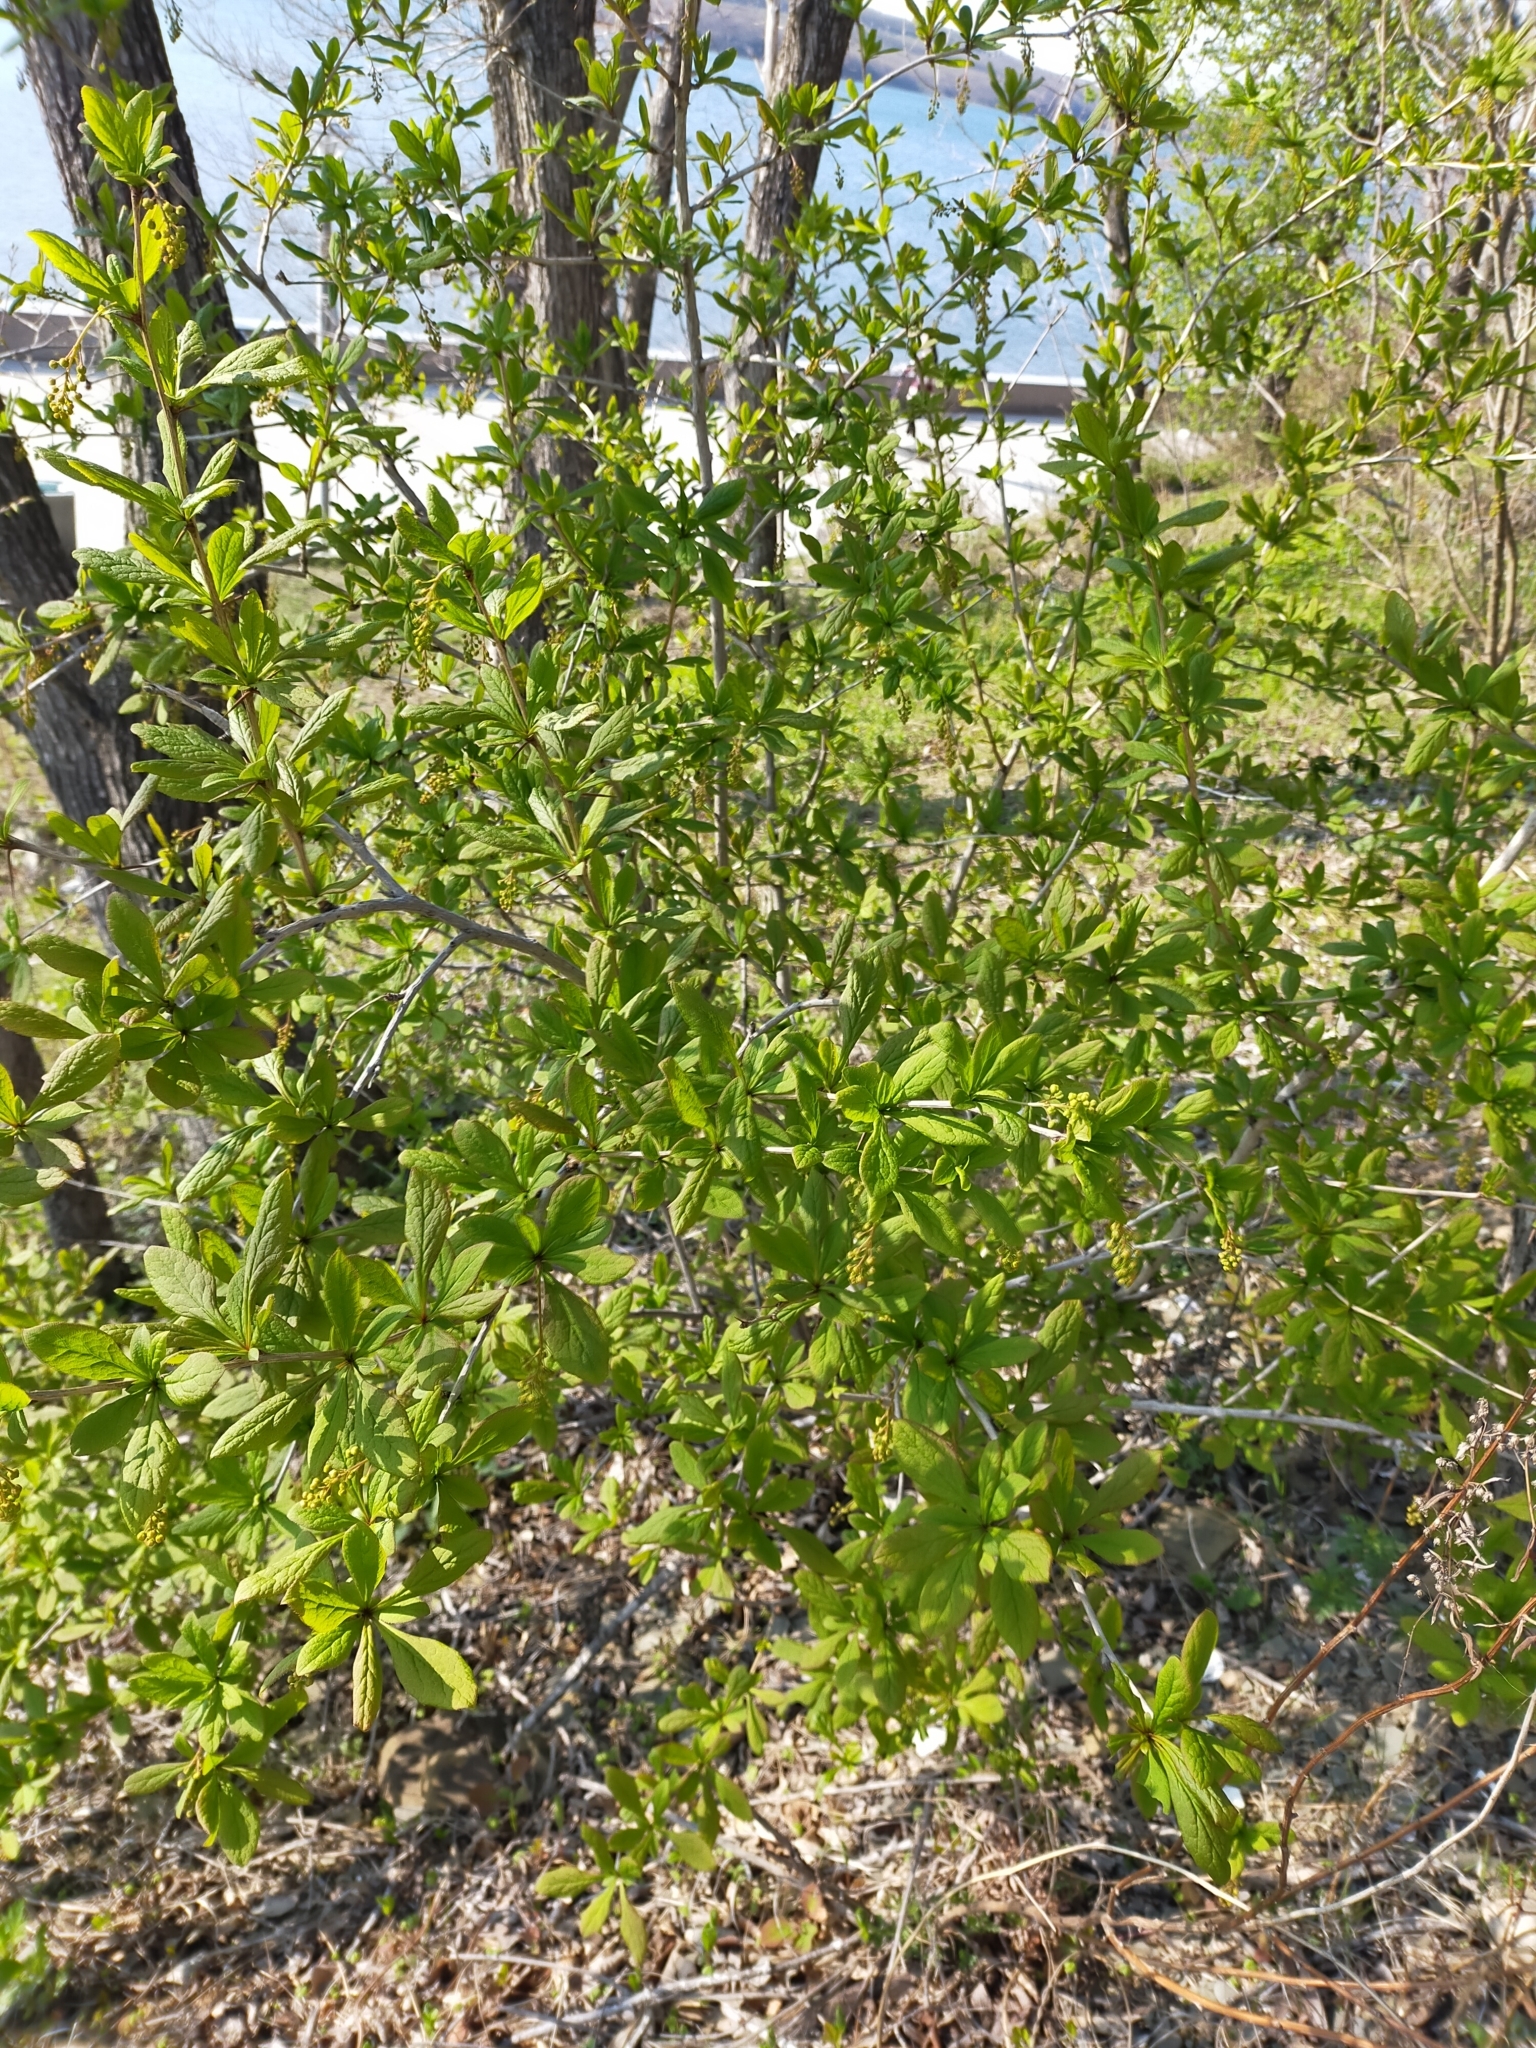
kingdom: Plantae
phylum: Tracheophyta
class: Magnoliopsida
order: Ranunculales
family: Berberidaceae
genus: Berberis
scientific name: Berberis amurensis
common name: Amur barberry
